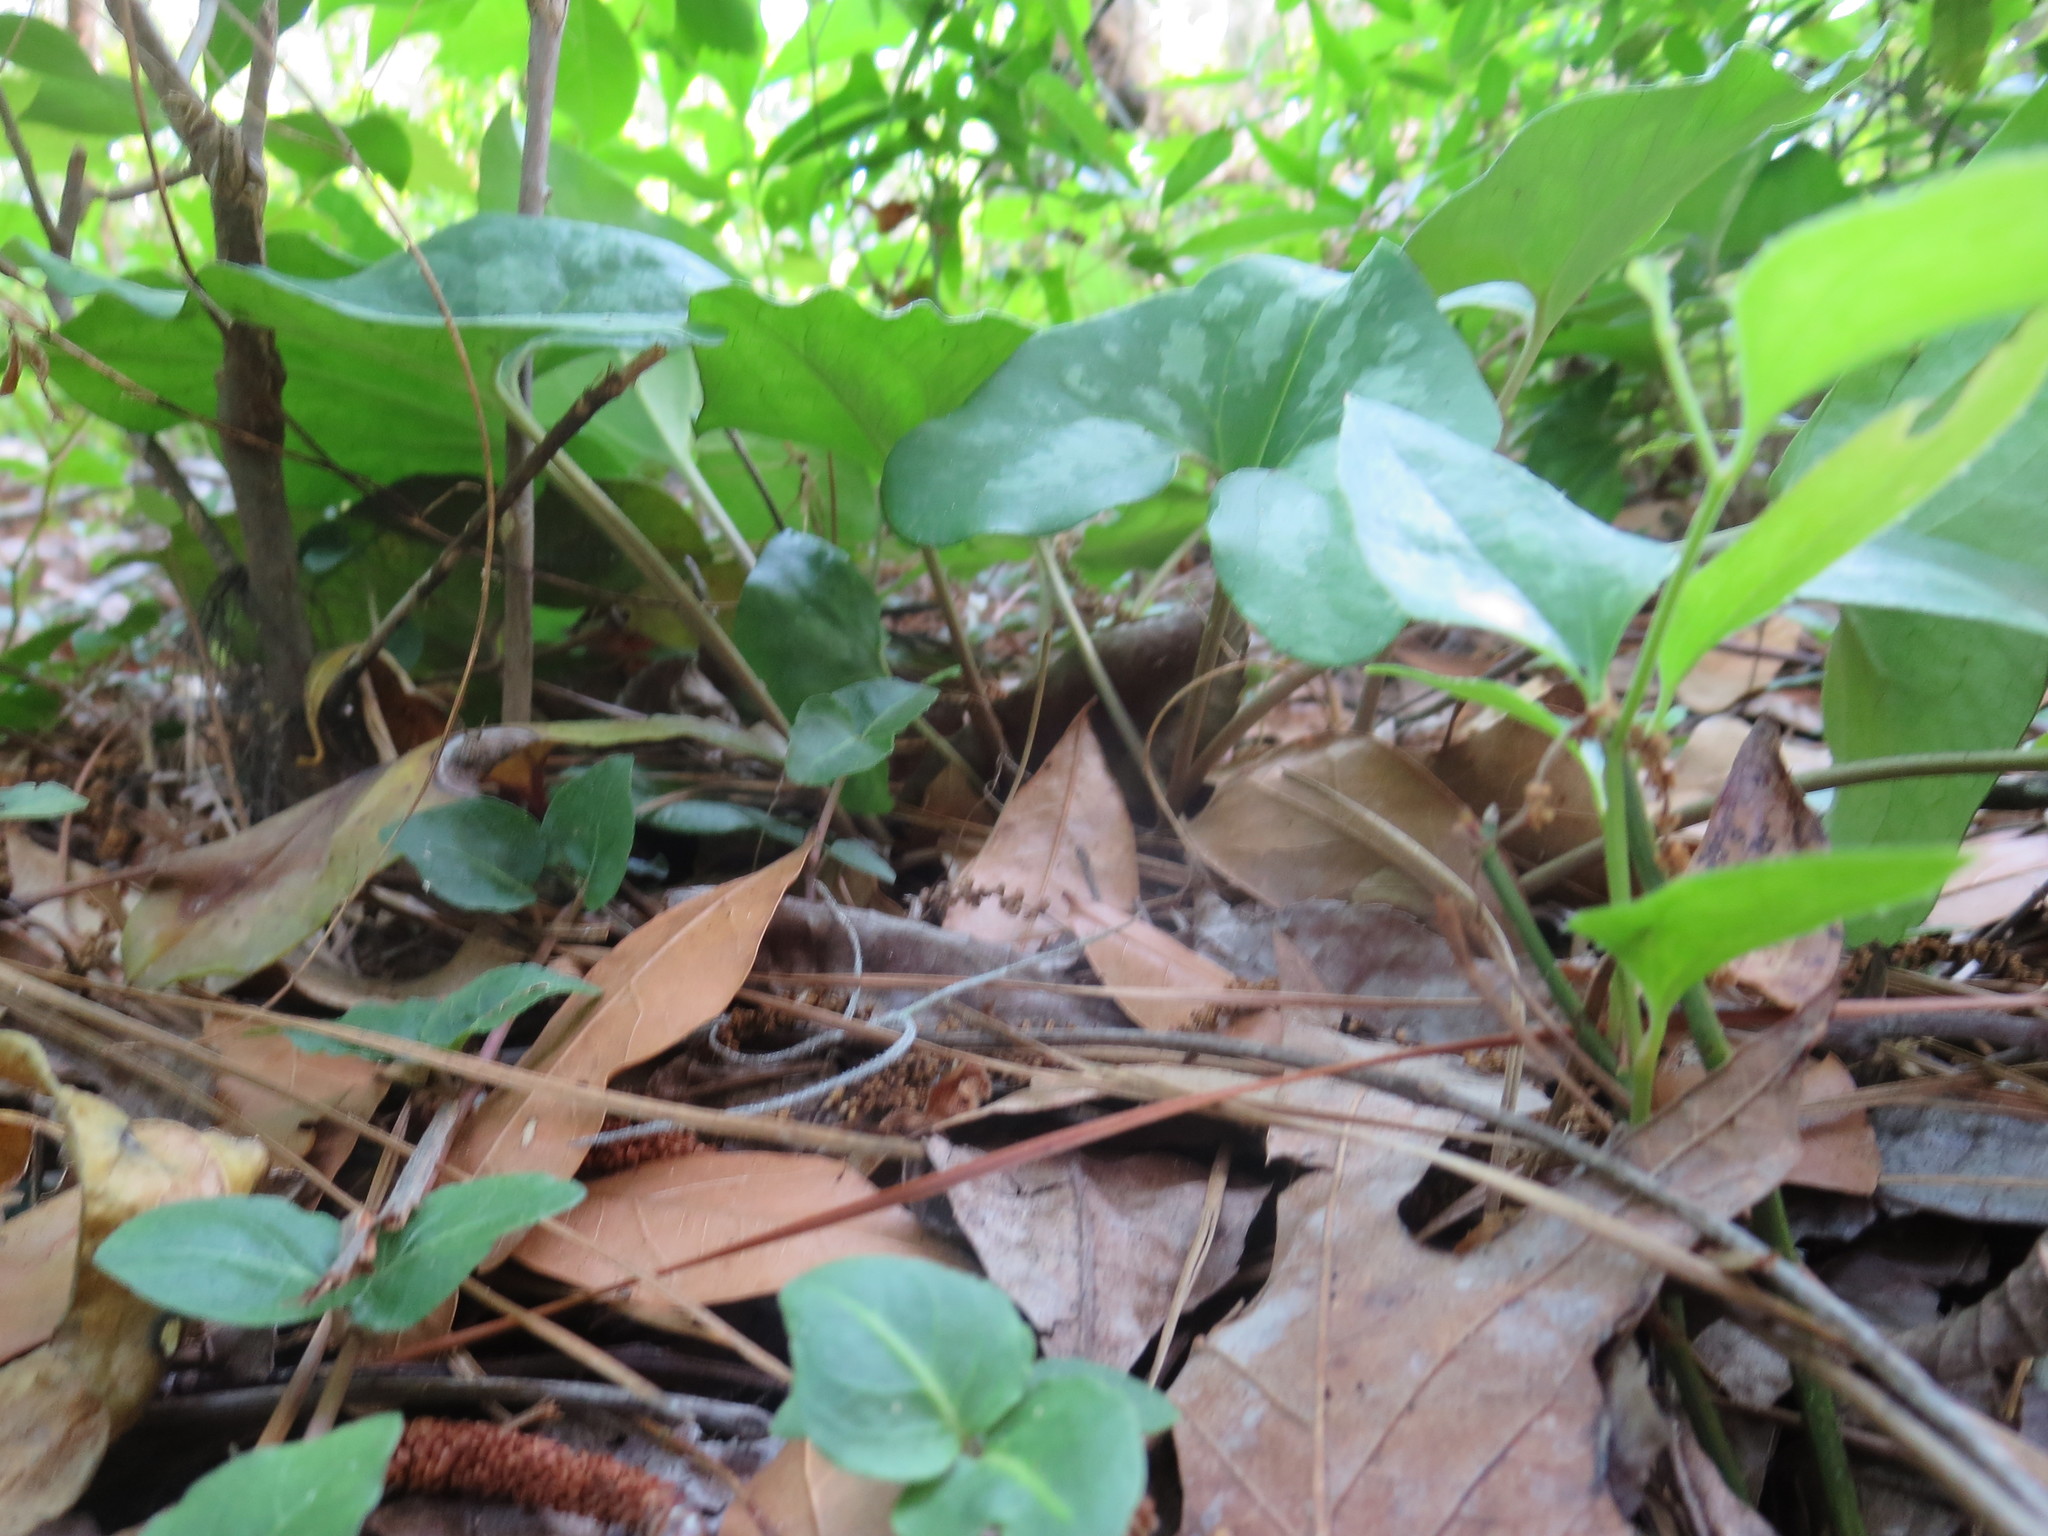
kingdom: Plantae
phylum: Tracheophyta
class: Magnoliopsida
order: Piperales
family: Aristolochiaceae
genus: Hexastylis
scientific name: Hexastylis arifolia
